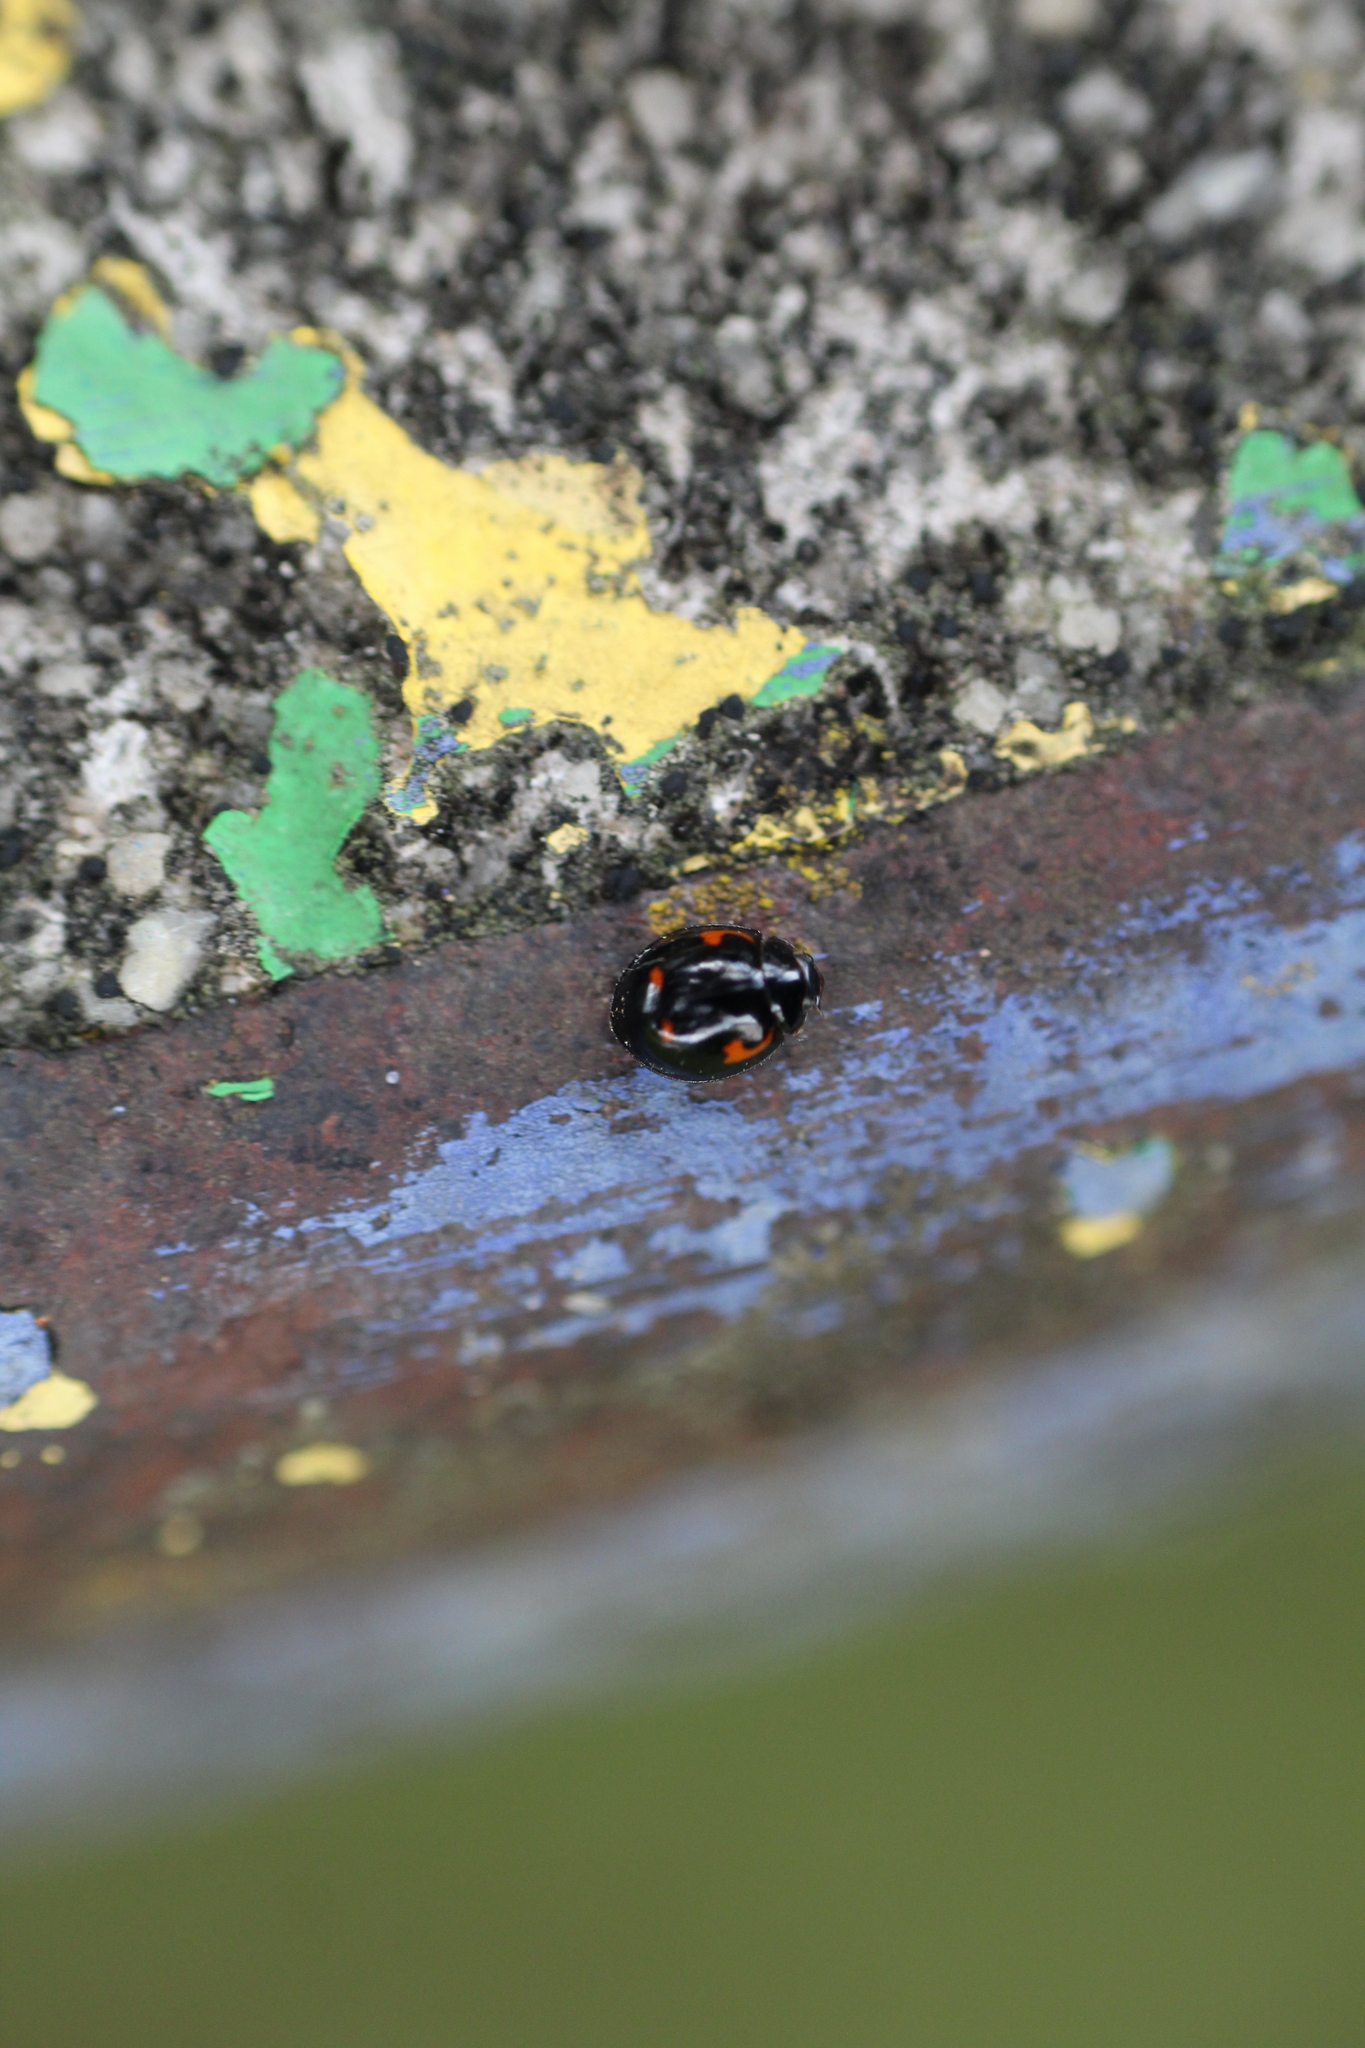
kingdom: Animalia
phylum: Arthropoda
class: Insecta
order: Coleoptera
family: Coccinellidae
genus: Brumus
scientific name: Brumus quadripustulatus
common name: Ladybird beetle
